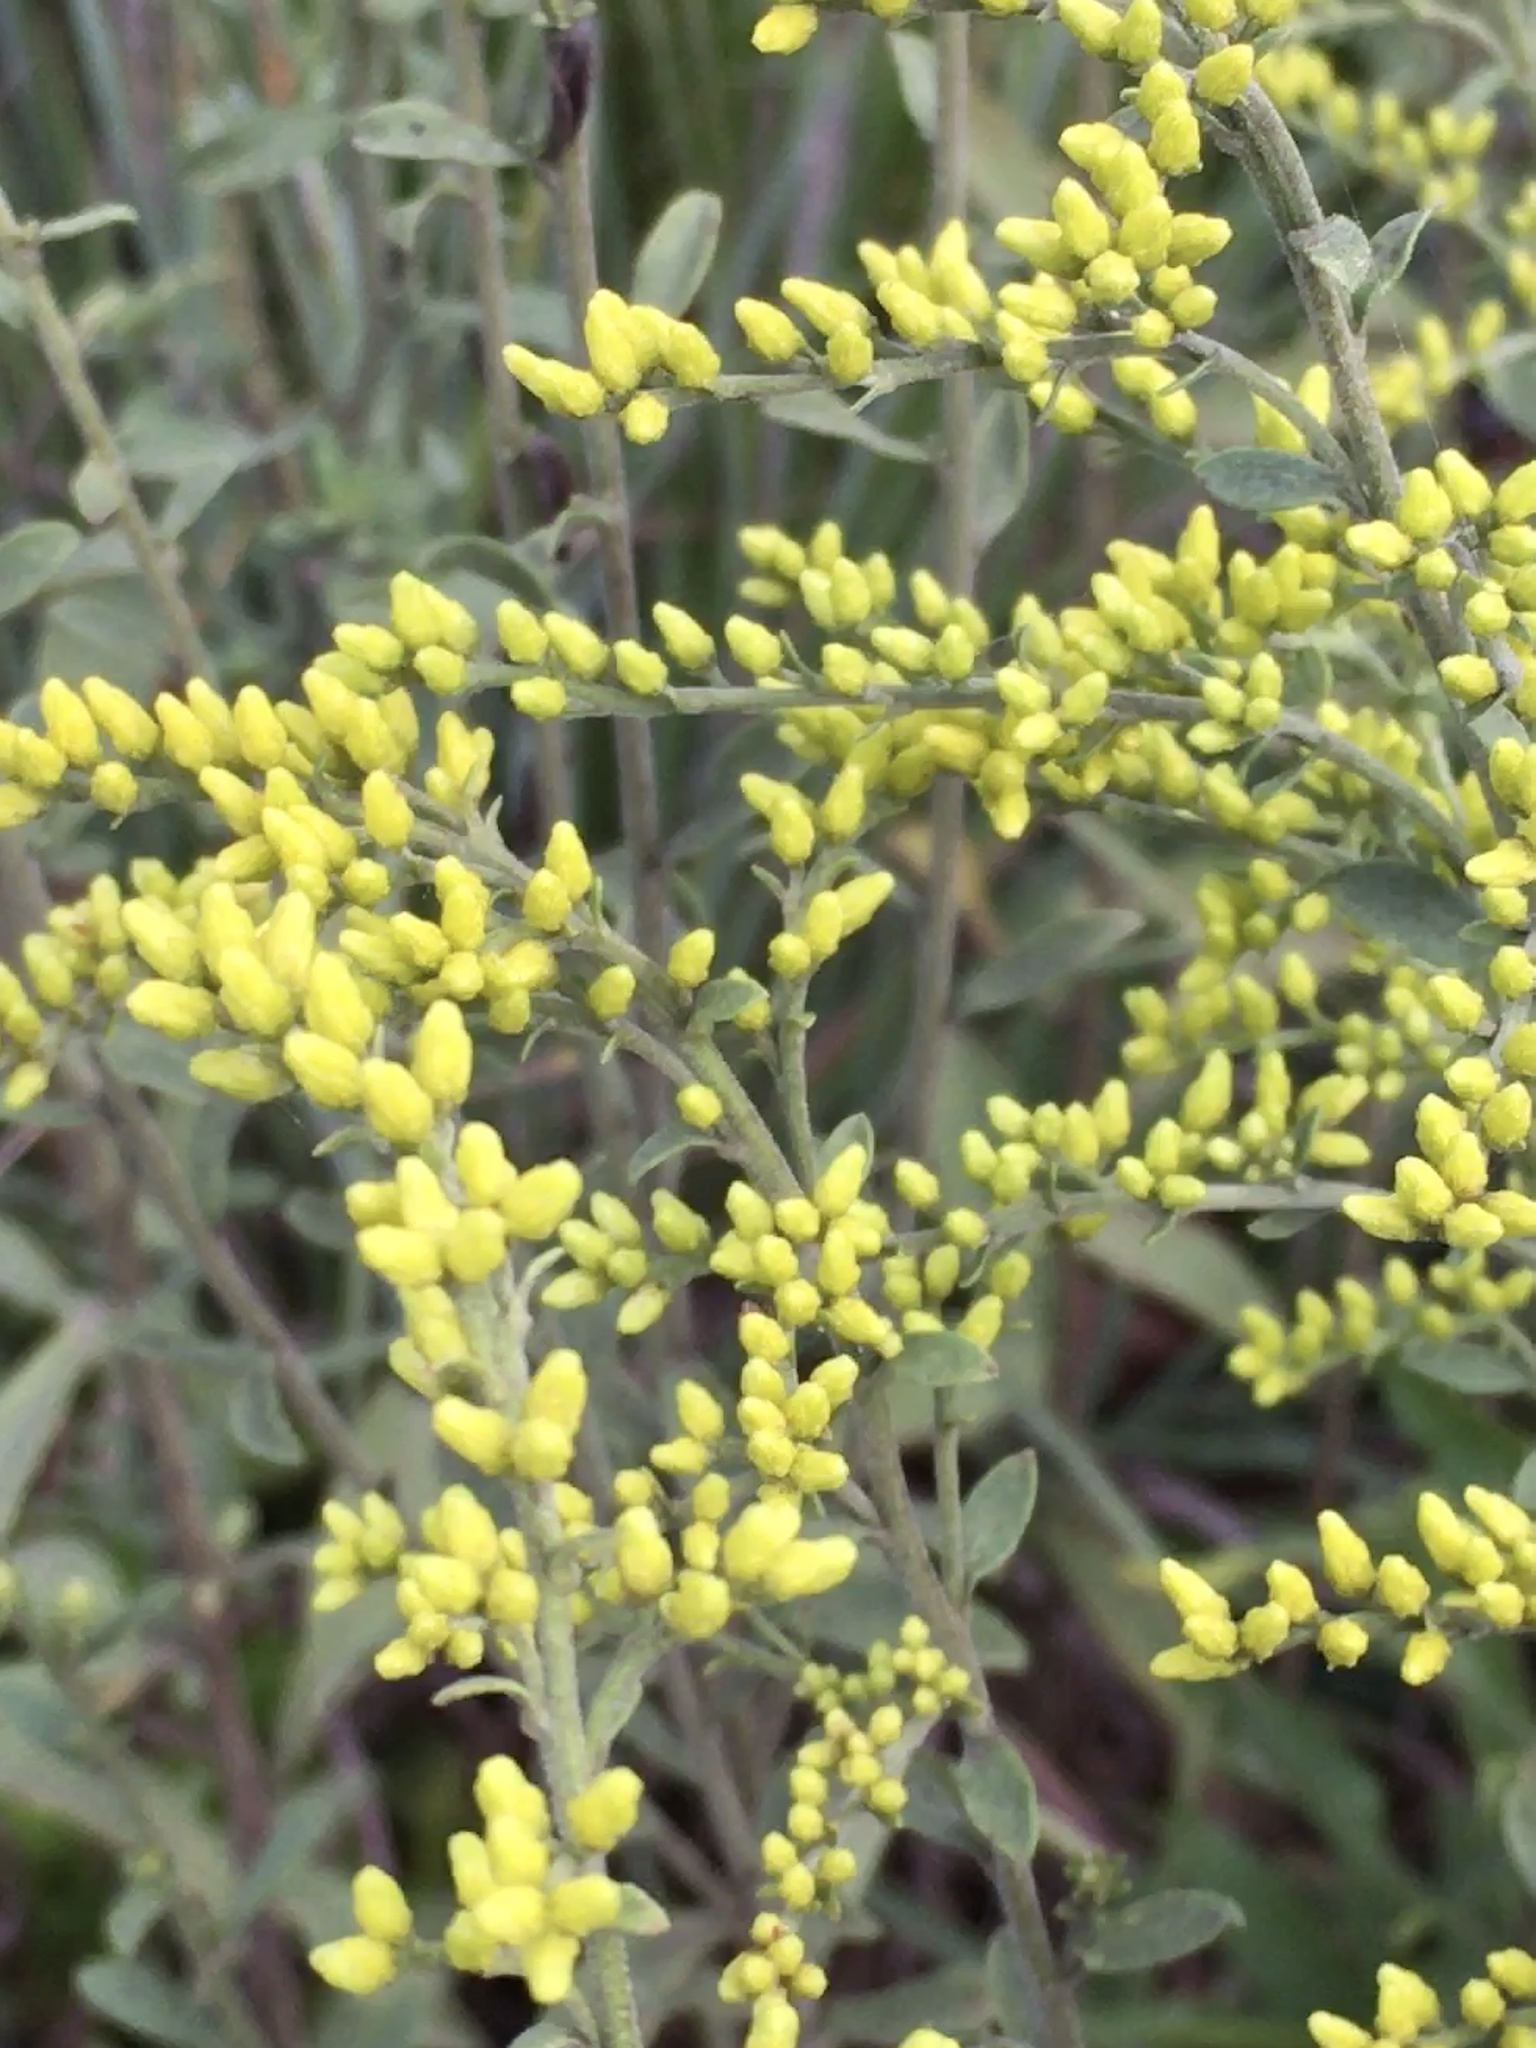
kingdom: Plantae
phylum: Tracheophyta
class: Magnoliopsida
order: Asterales
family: Asteraceae
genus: Solidago
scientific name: Solidago nemoralis
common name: Grey goldenrod
